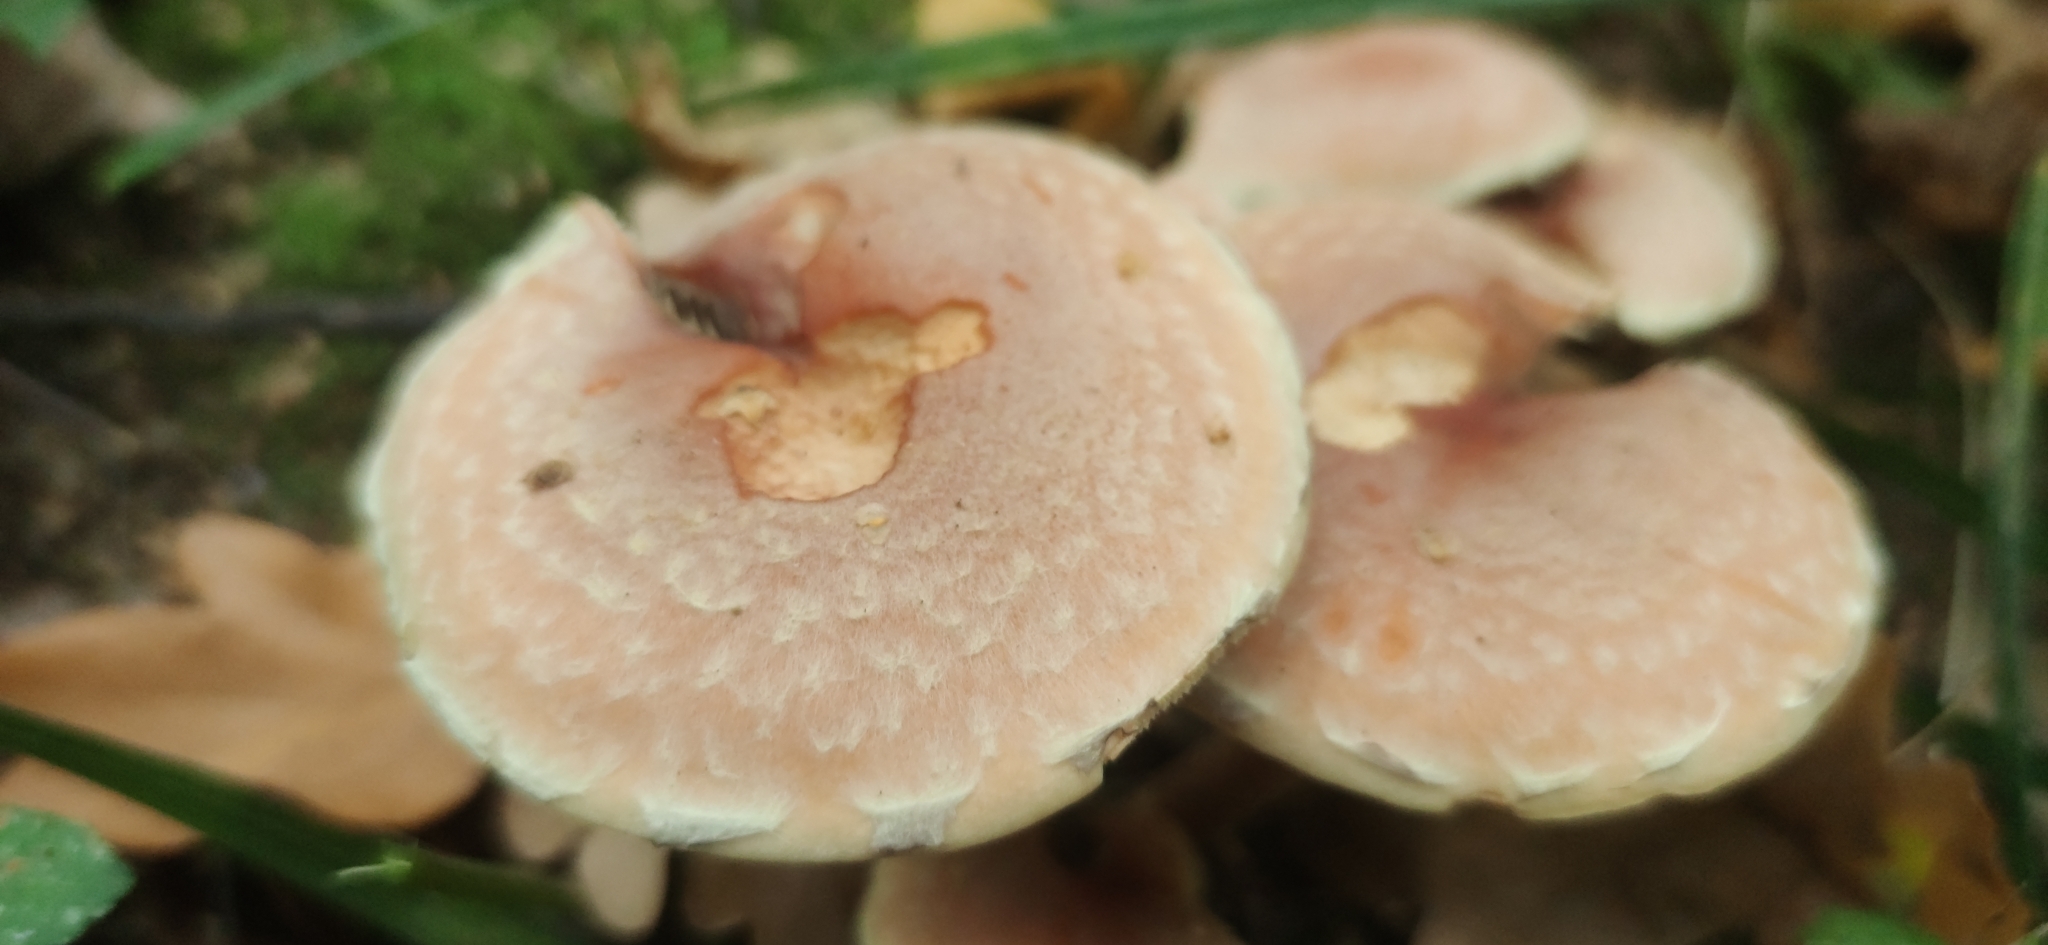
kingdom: Fungi
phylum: Basidiomycota
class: Agaricomycetes
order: Agaricales
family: Strophariaceae
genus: Hypholoma
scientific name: Hypholoma lateritium
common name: Brick caps
